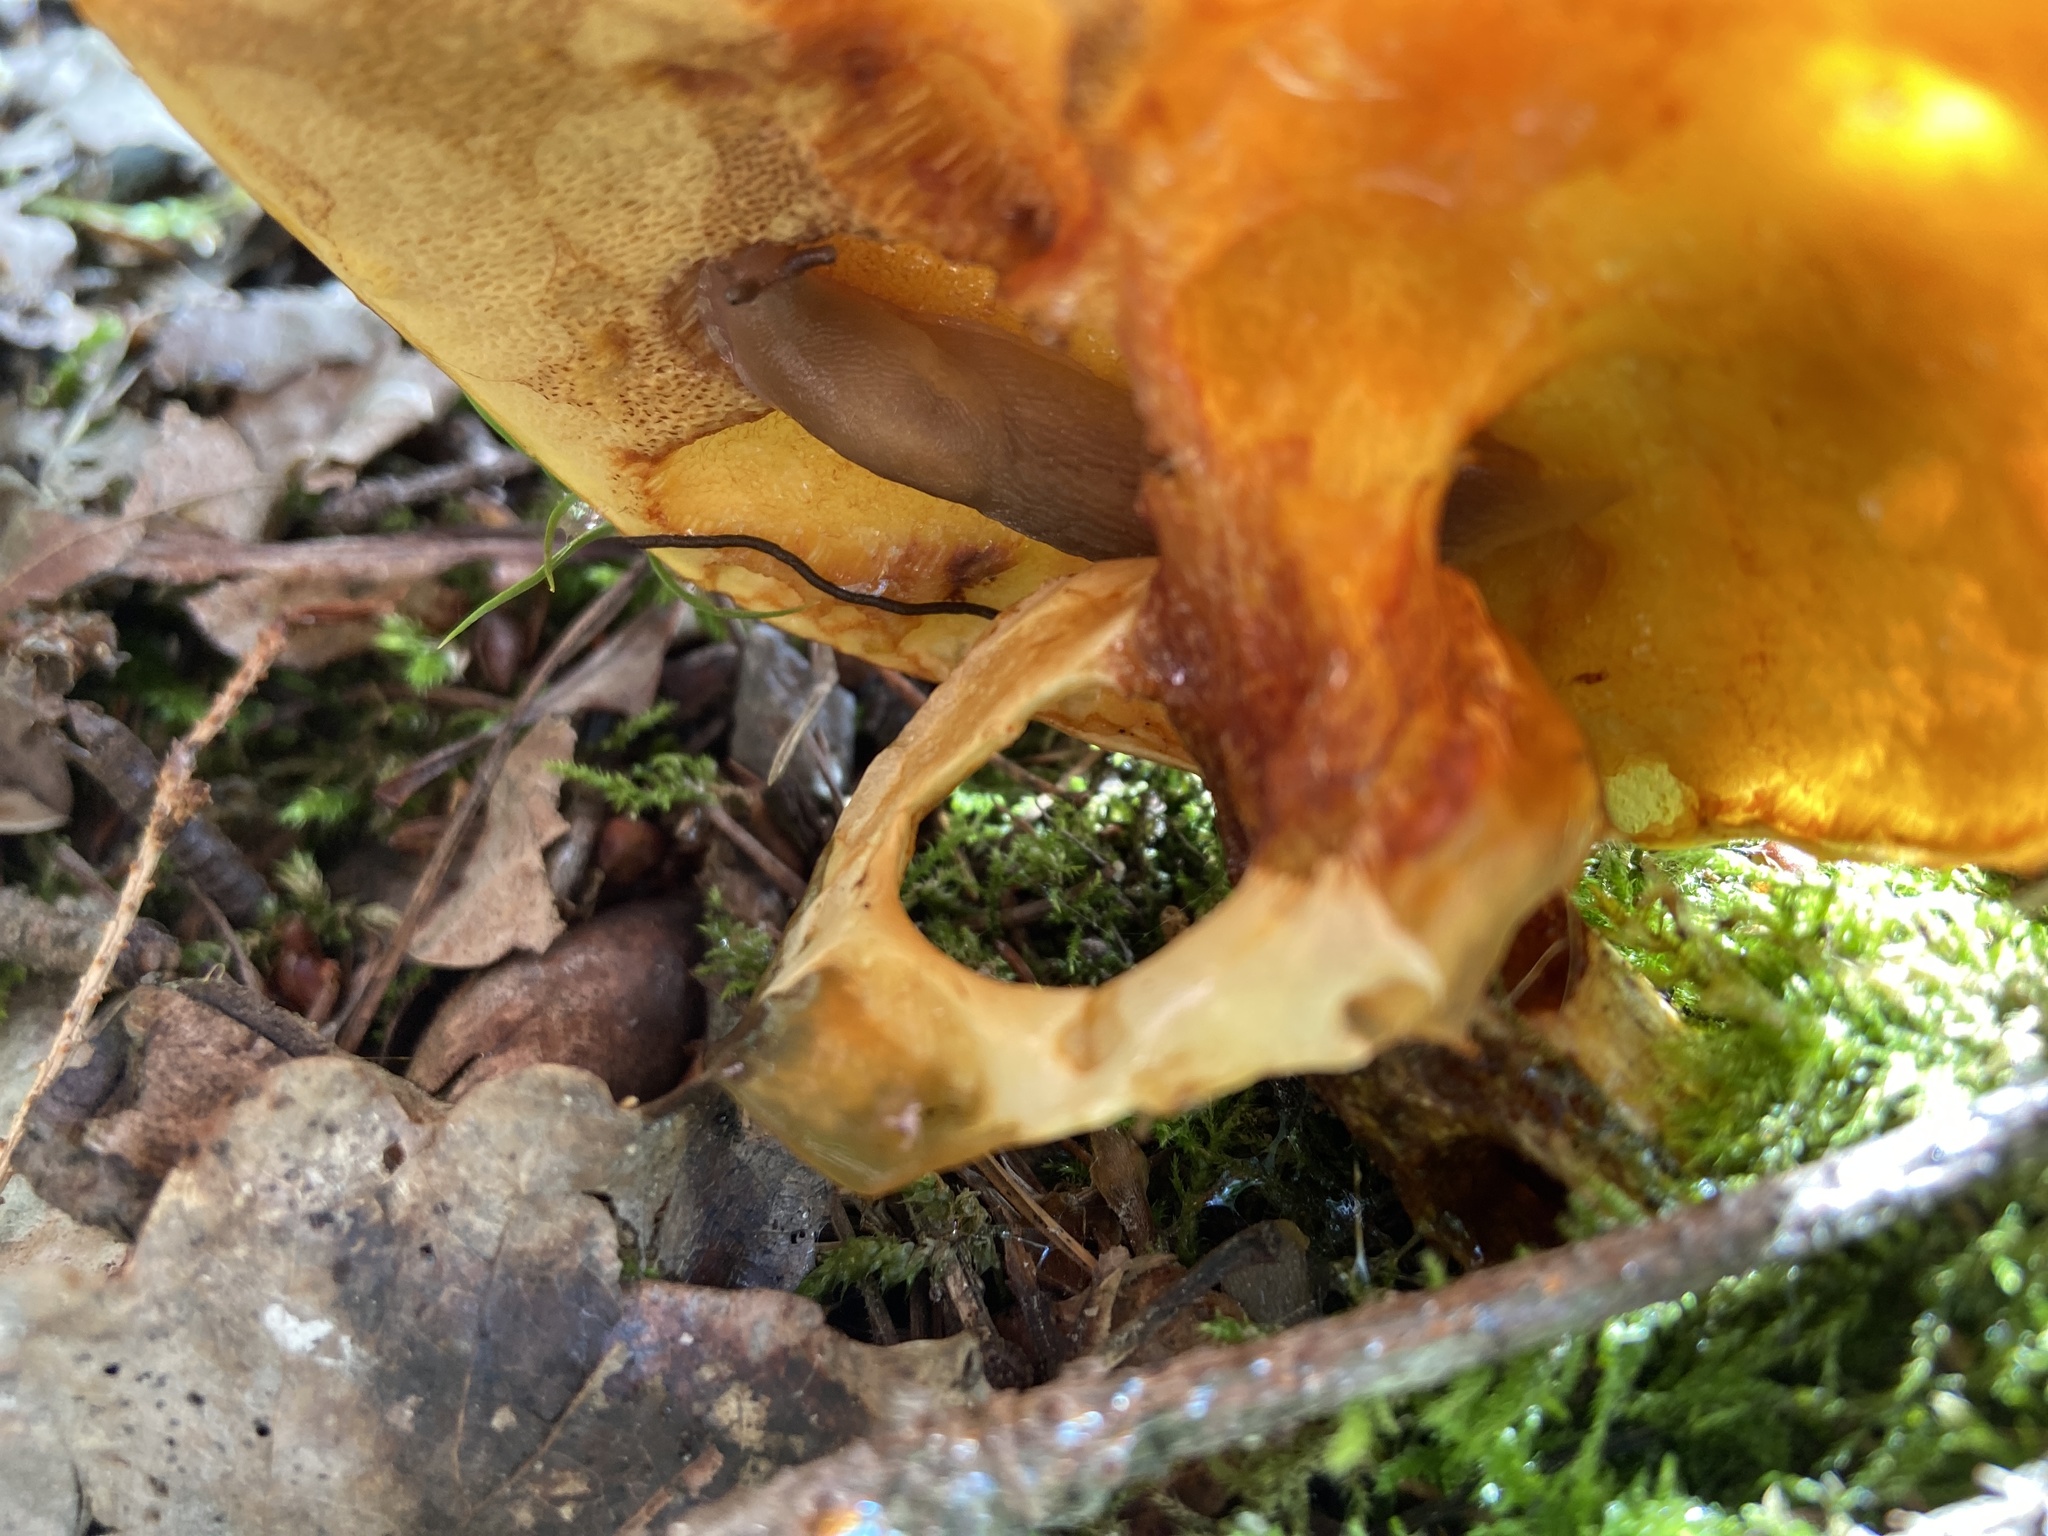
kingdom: Fungi
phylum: Basidiomycota
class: Agaricomycetes
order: Boletales
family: Suillaceae
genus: Suillus
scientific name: Suillus grevillei
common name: Larch bolete
